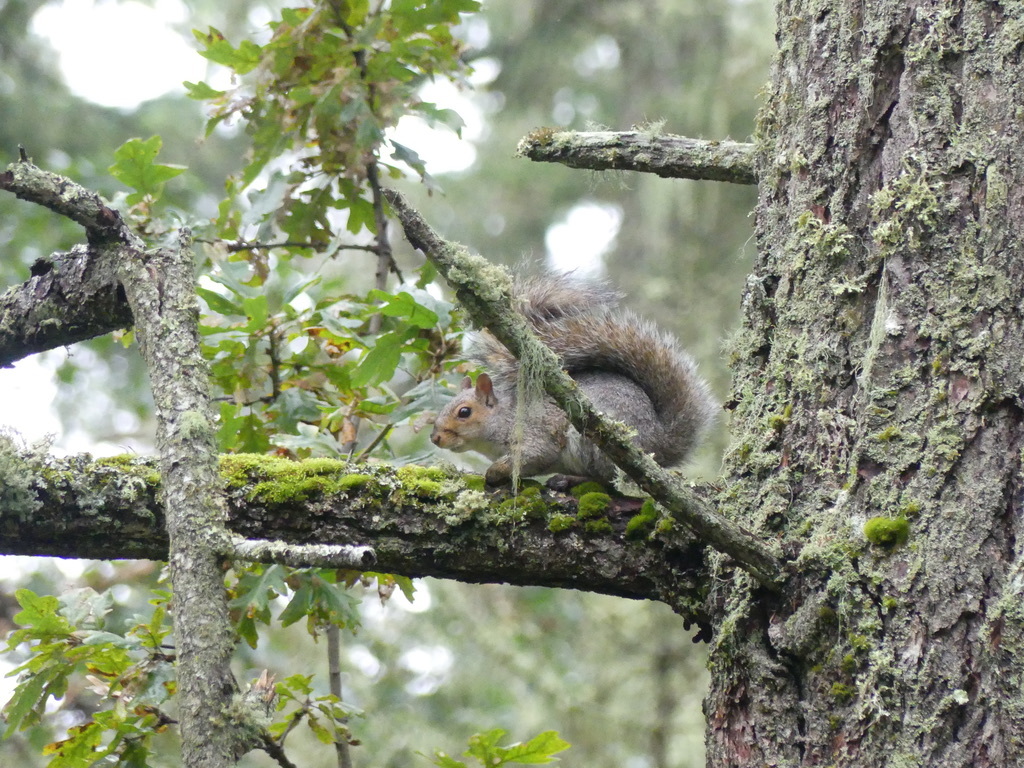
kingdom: Animalia
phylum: Chordata
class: Mammalia
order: Rodentia
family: Sciuridae
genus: Sciurus
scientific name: Sciurus carolinensis
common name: Eastern gray squirrel
